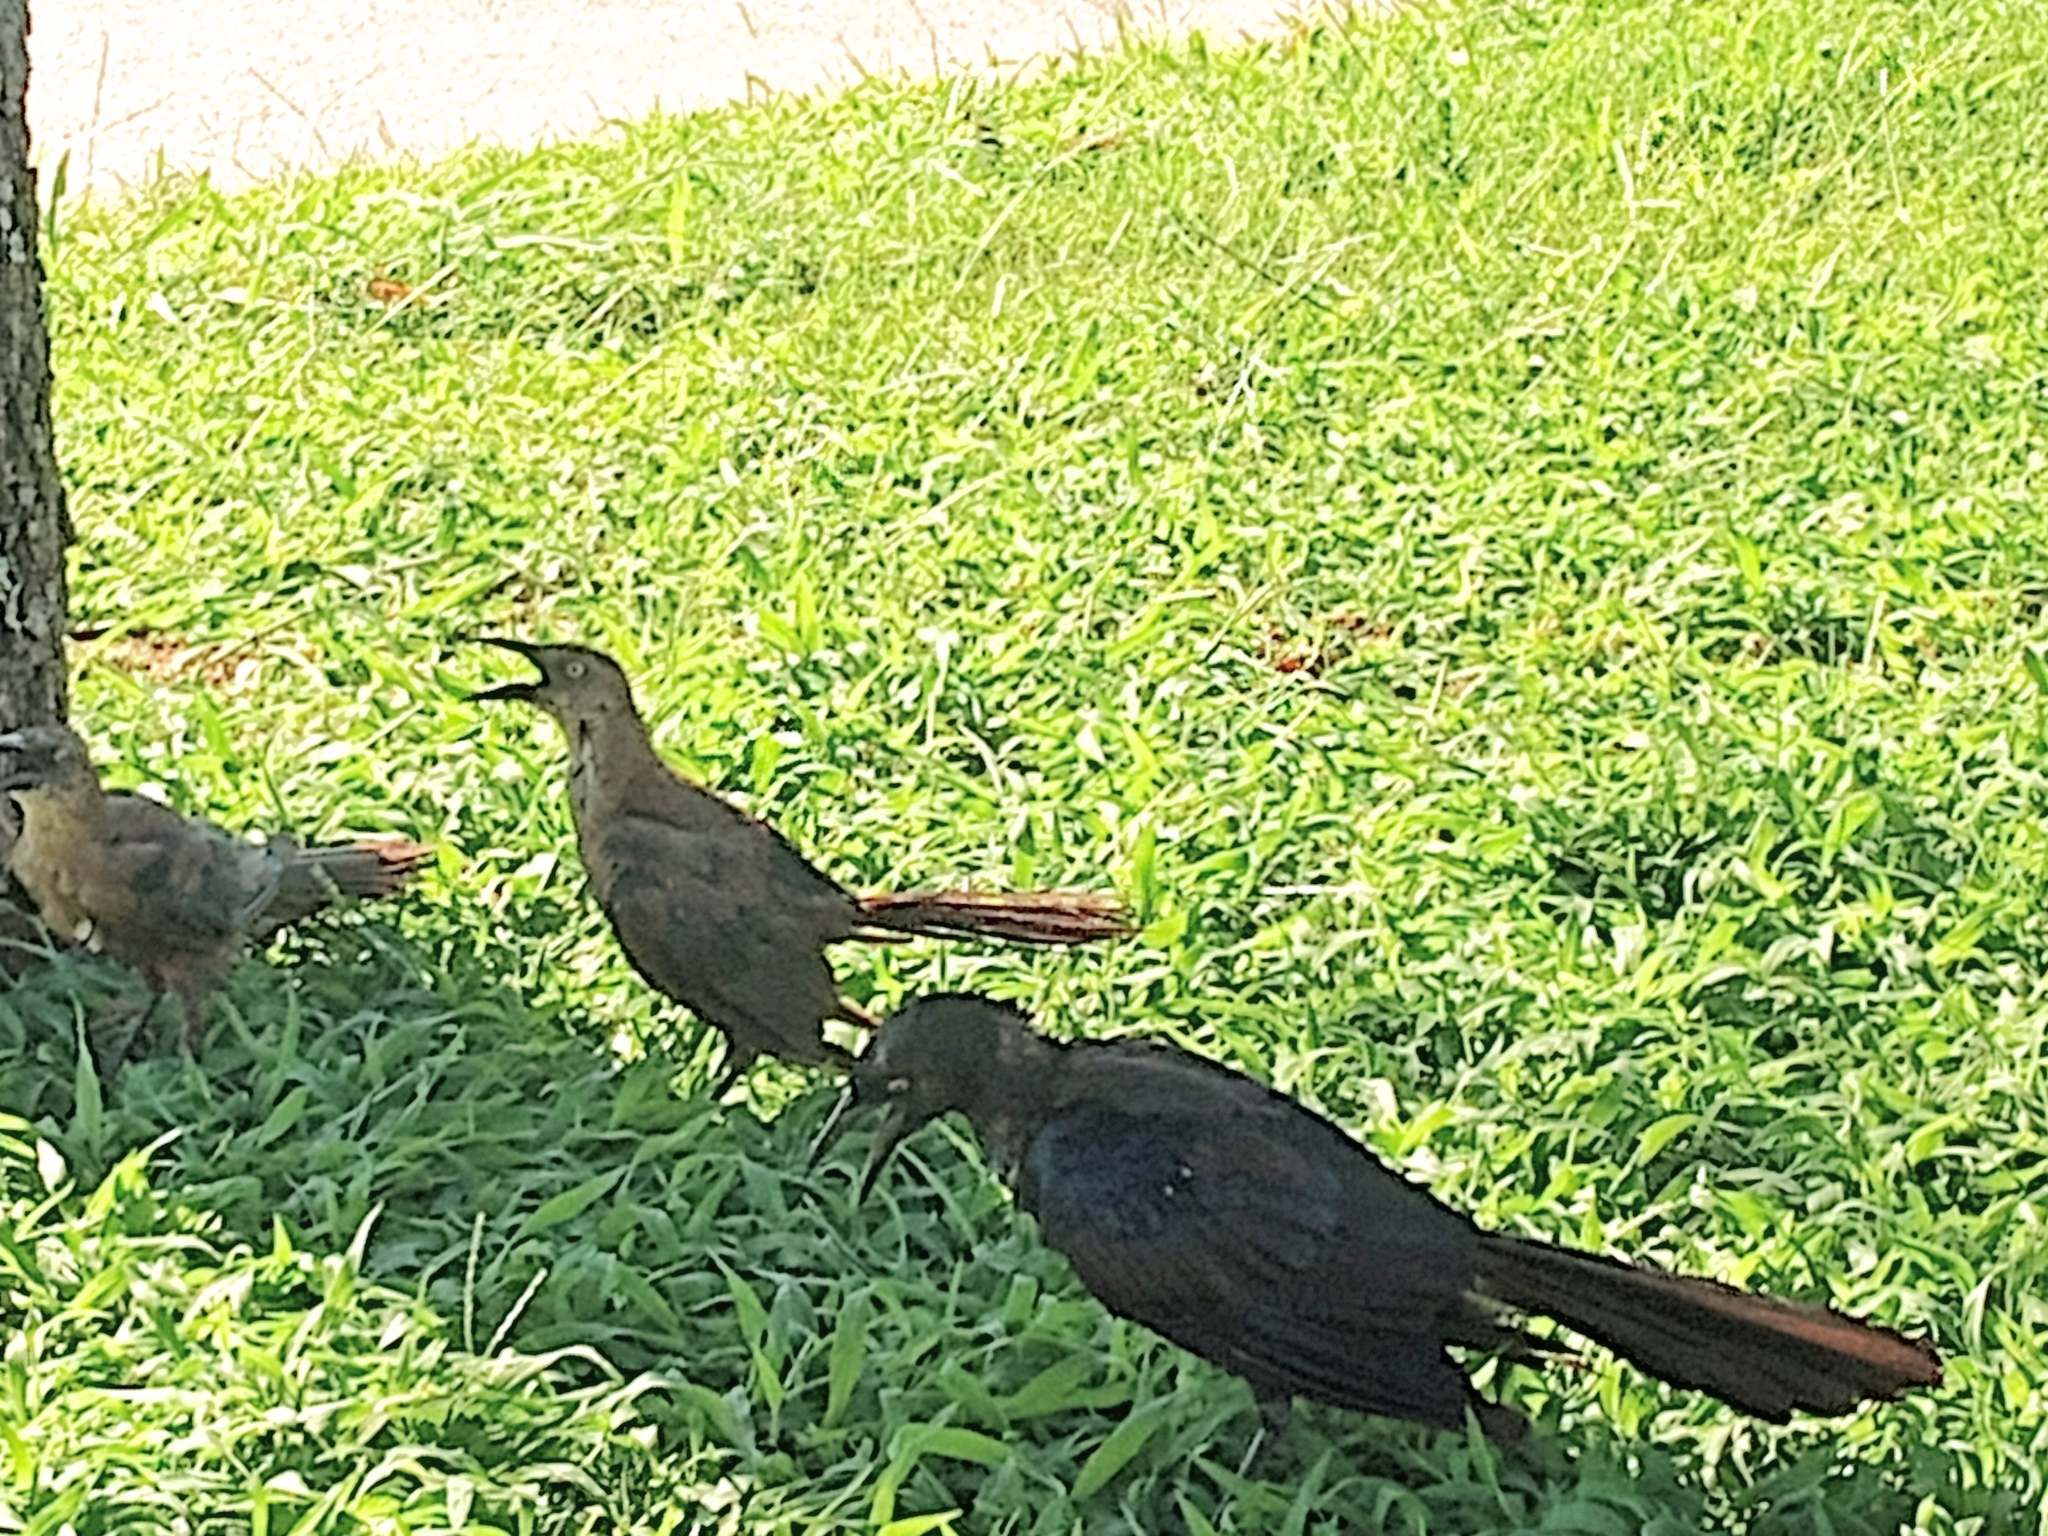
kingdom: Animalia
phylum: Chordata
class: Aves
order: Passeriformes
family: Icteridae
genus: Quiscalus
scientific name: Quiscalus mexicanus
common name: Great-tailed grackle
